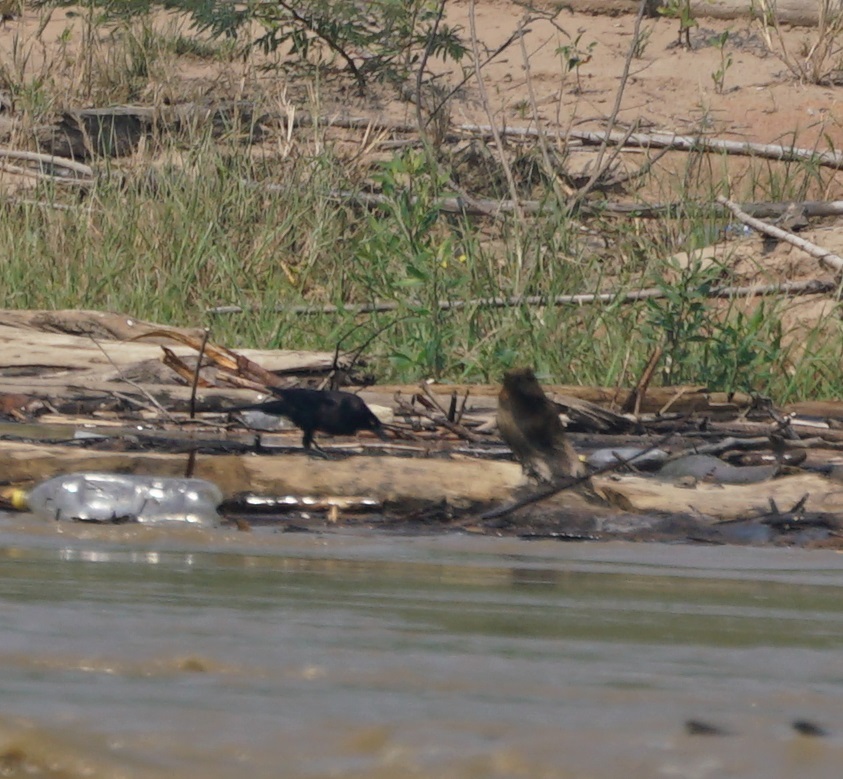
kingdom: Animalia
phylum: Chordata
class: Aves
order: Passeriformes
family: Icteridae
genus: Molothrus
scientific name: Molothrus oryzivorus
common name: Giant cowbird
